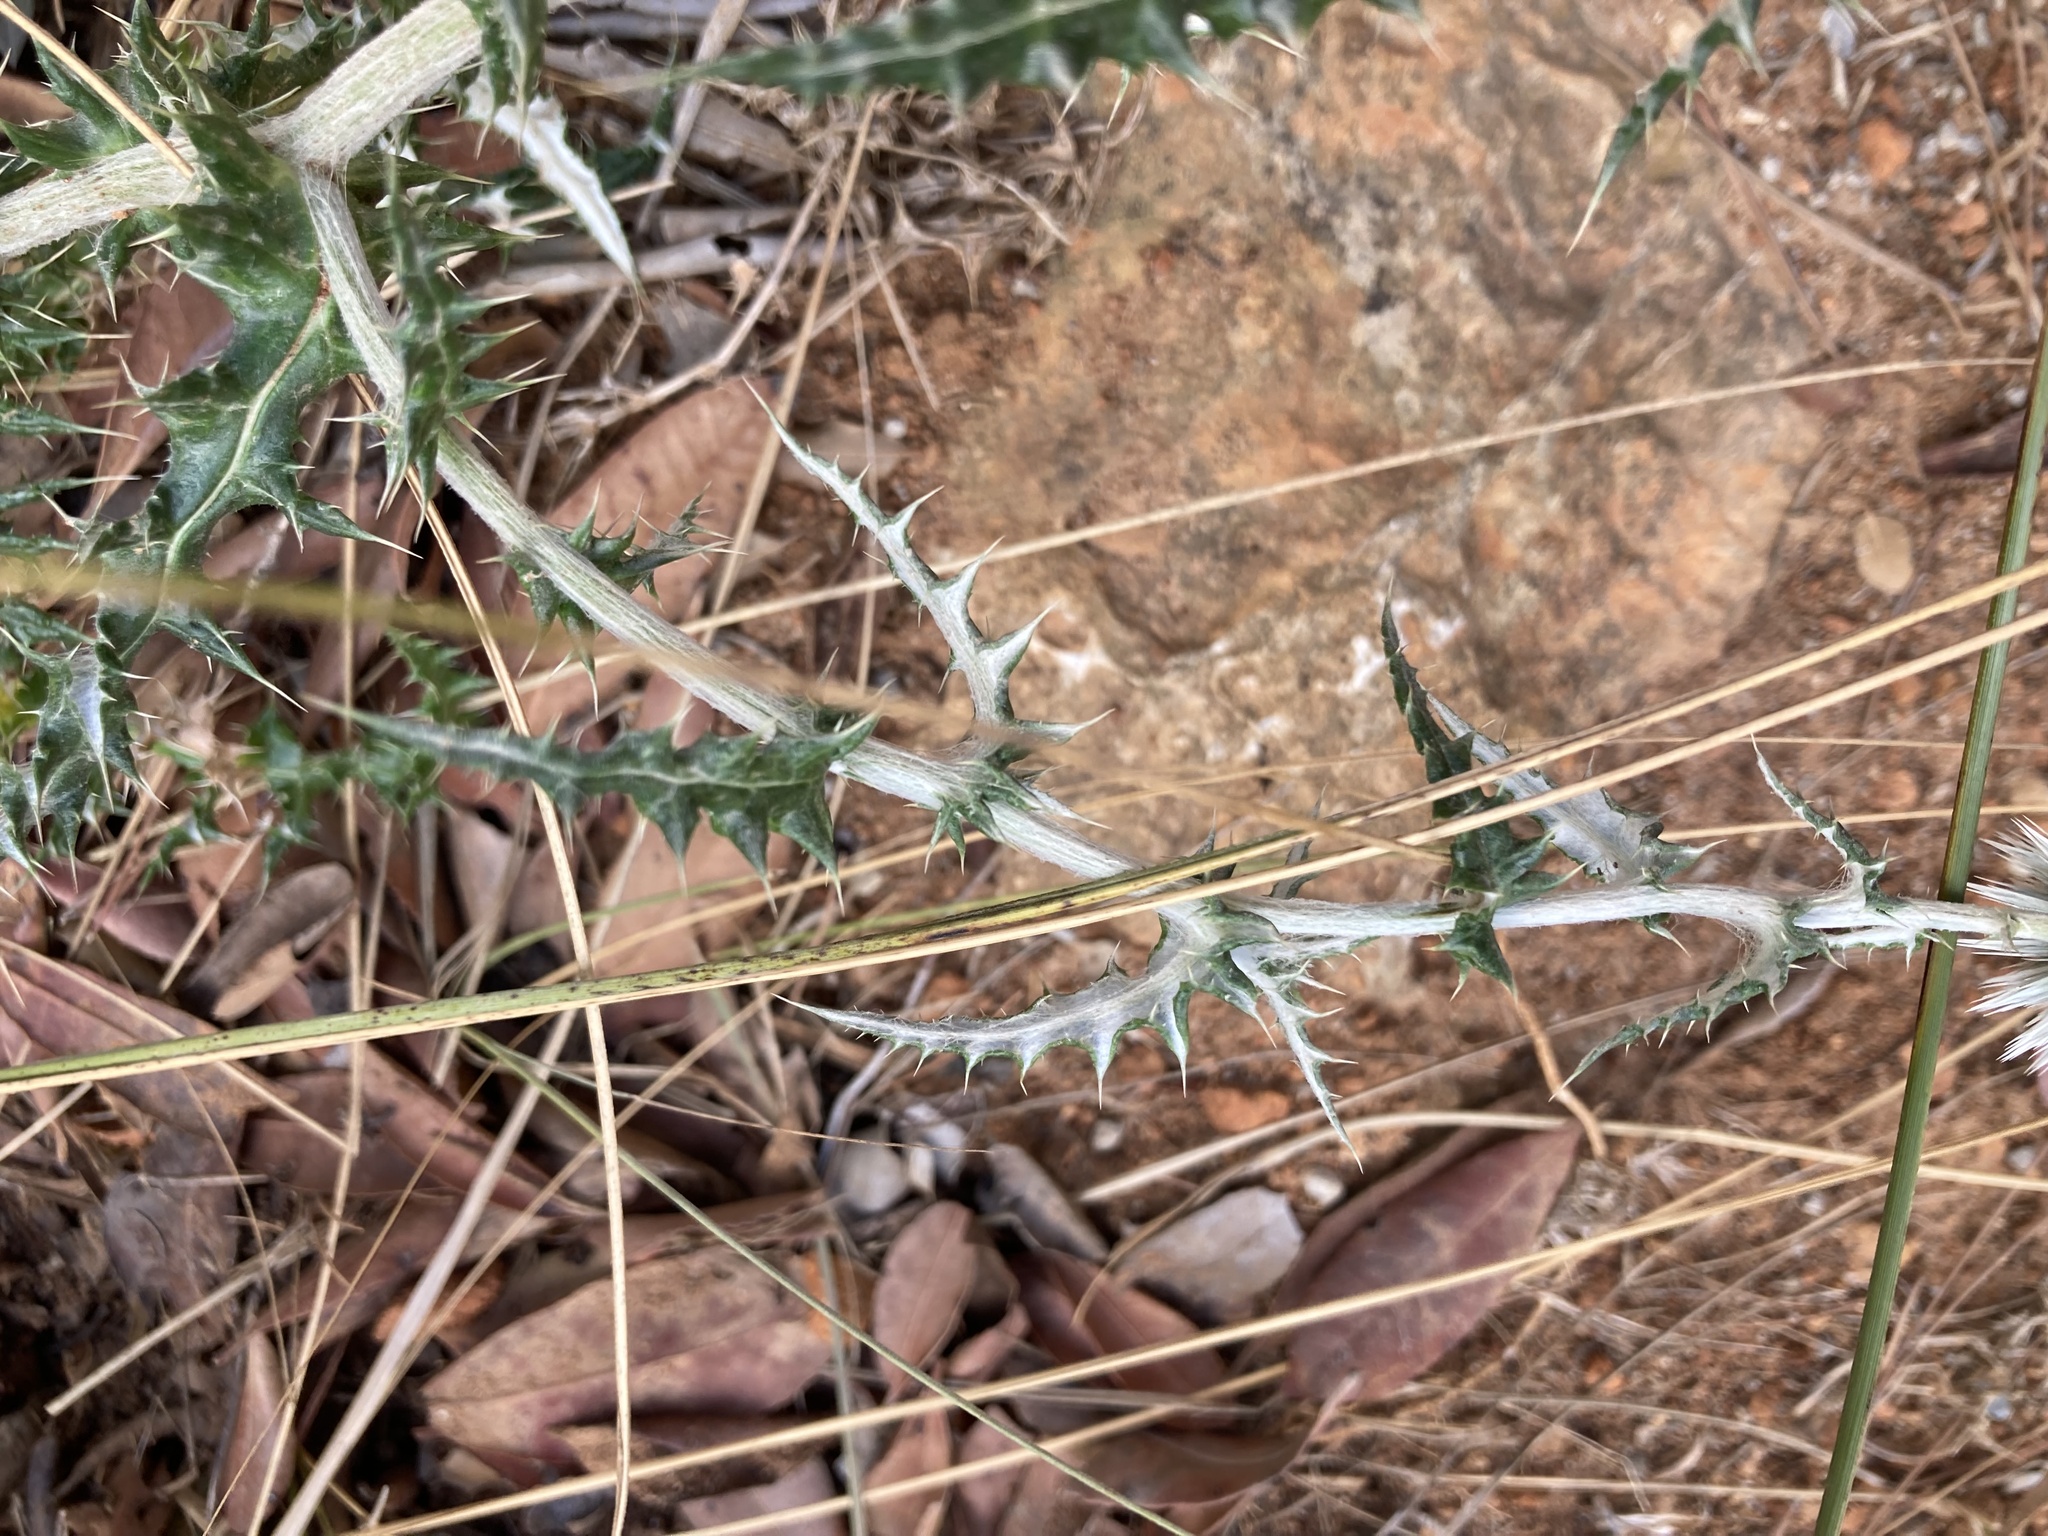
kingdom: Plantae
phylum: Tracheophyta
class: Magnoliopsida
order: Asterales
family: Asteraceae
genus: Echinops
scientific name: Echinops ritro
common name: Globe thistle
